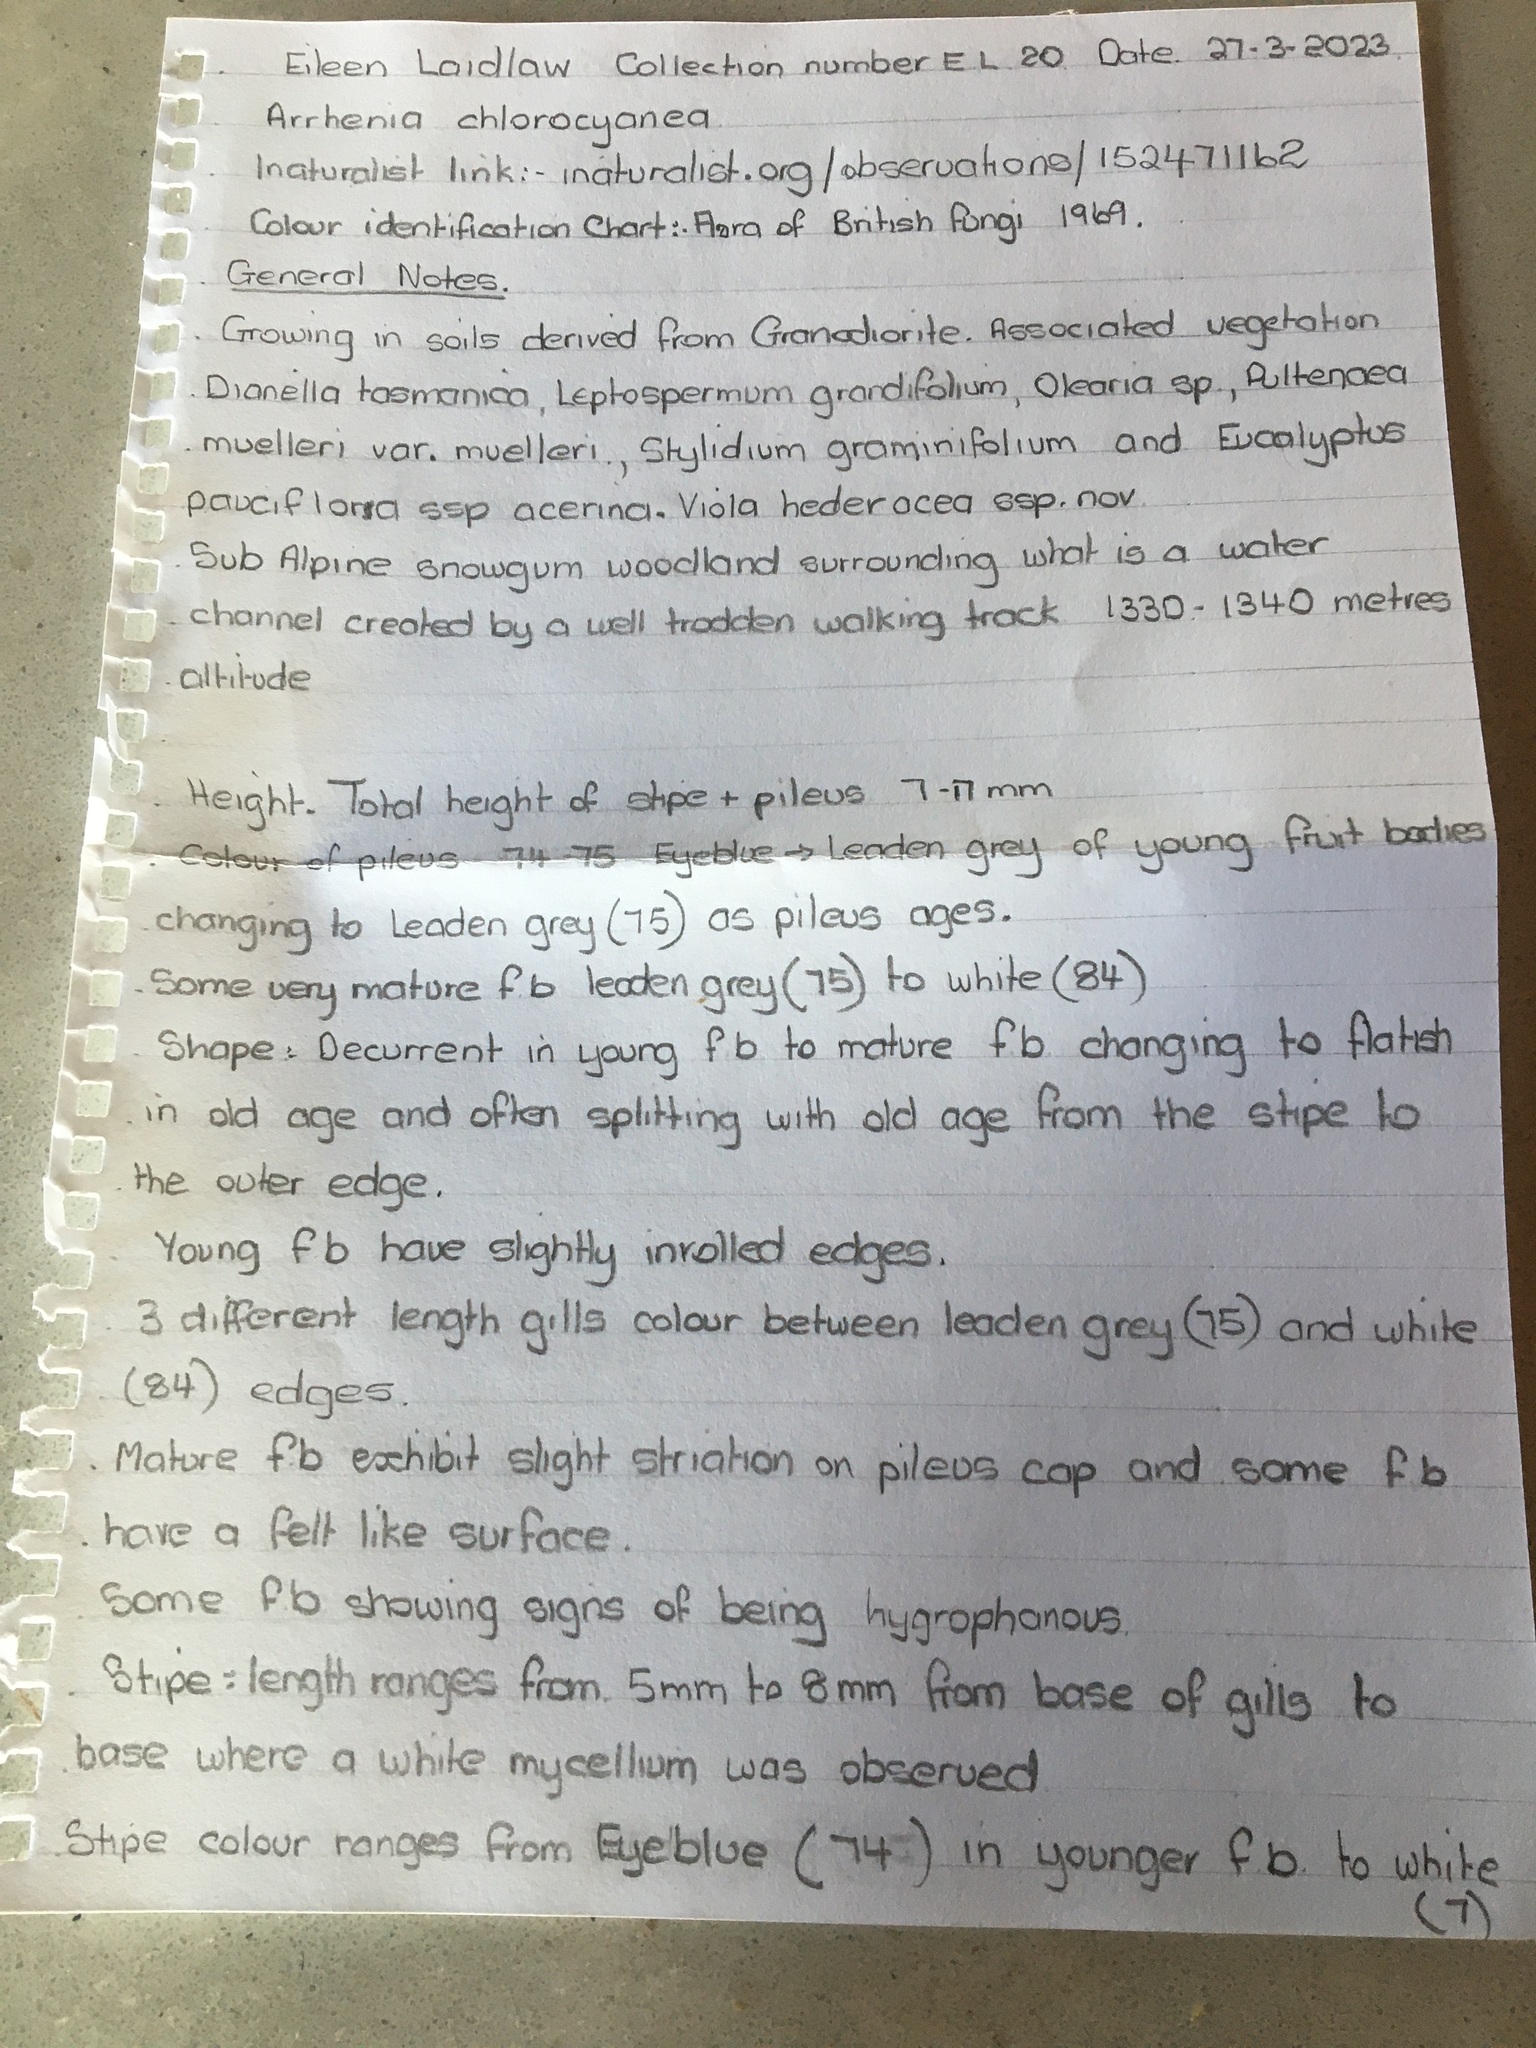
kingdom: Fungi
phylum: Basidiomycota
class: Agaricomycetes
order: Agaricales
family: Hygrophoraceae
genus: Arrhenia
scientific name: Arrhenia chlorocyanea
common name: Verdigris navel
